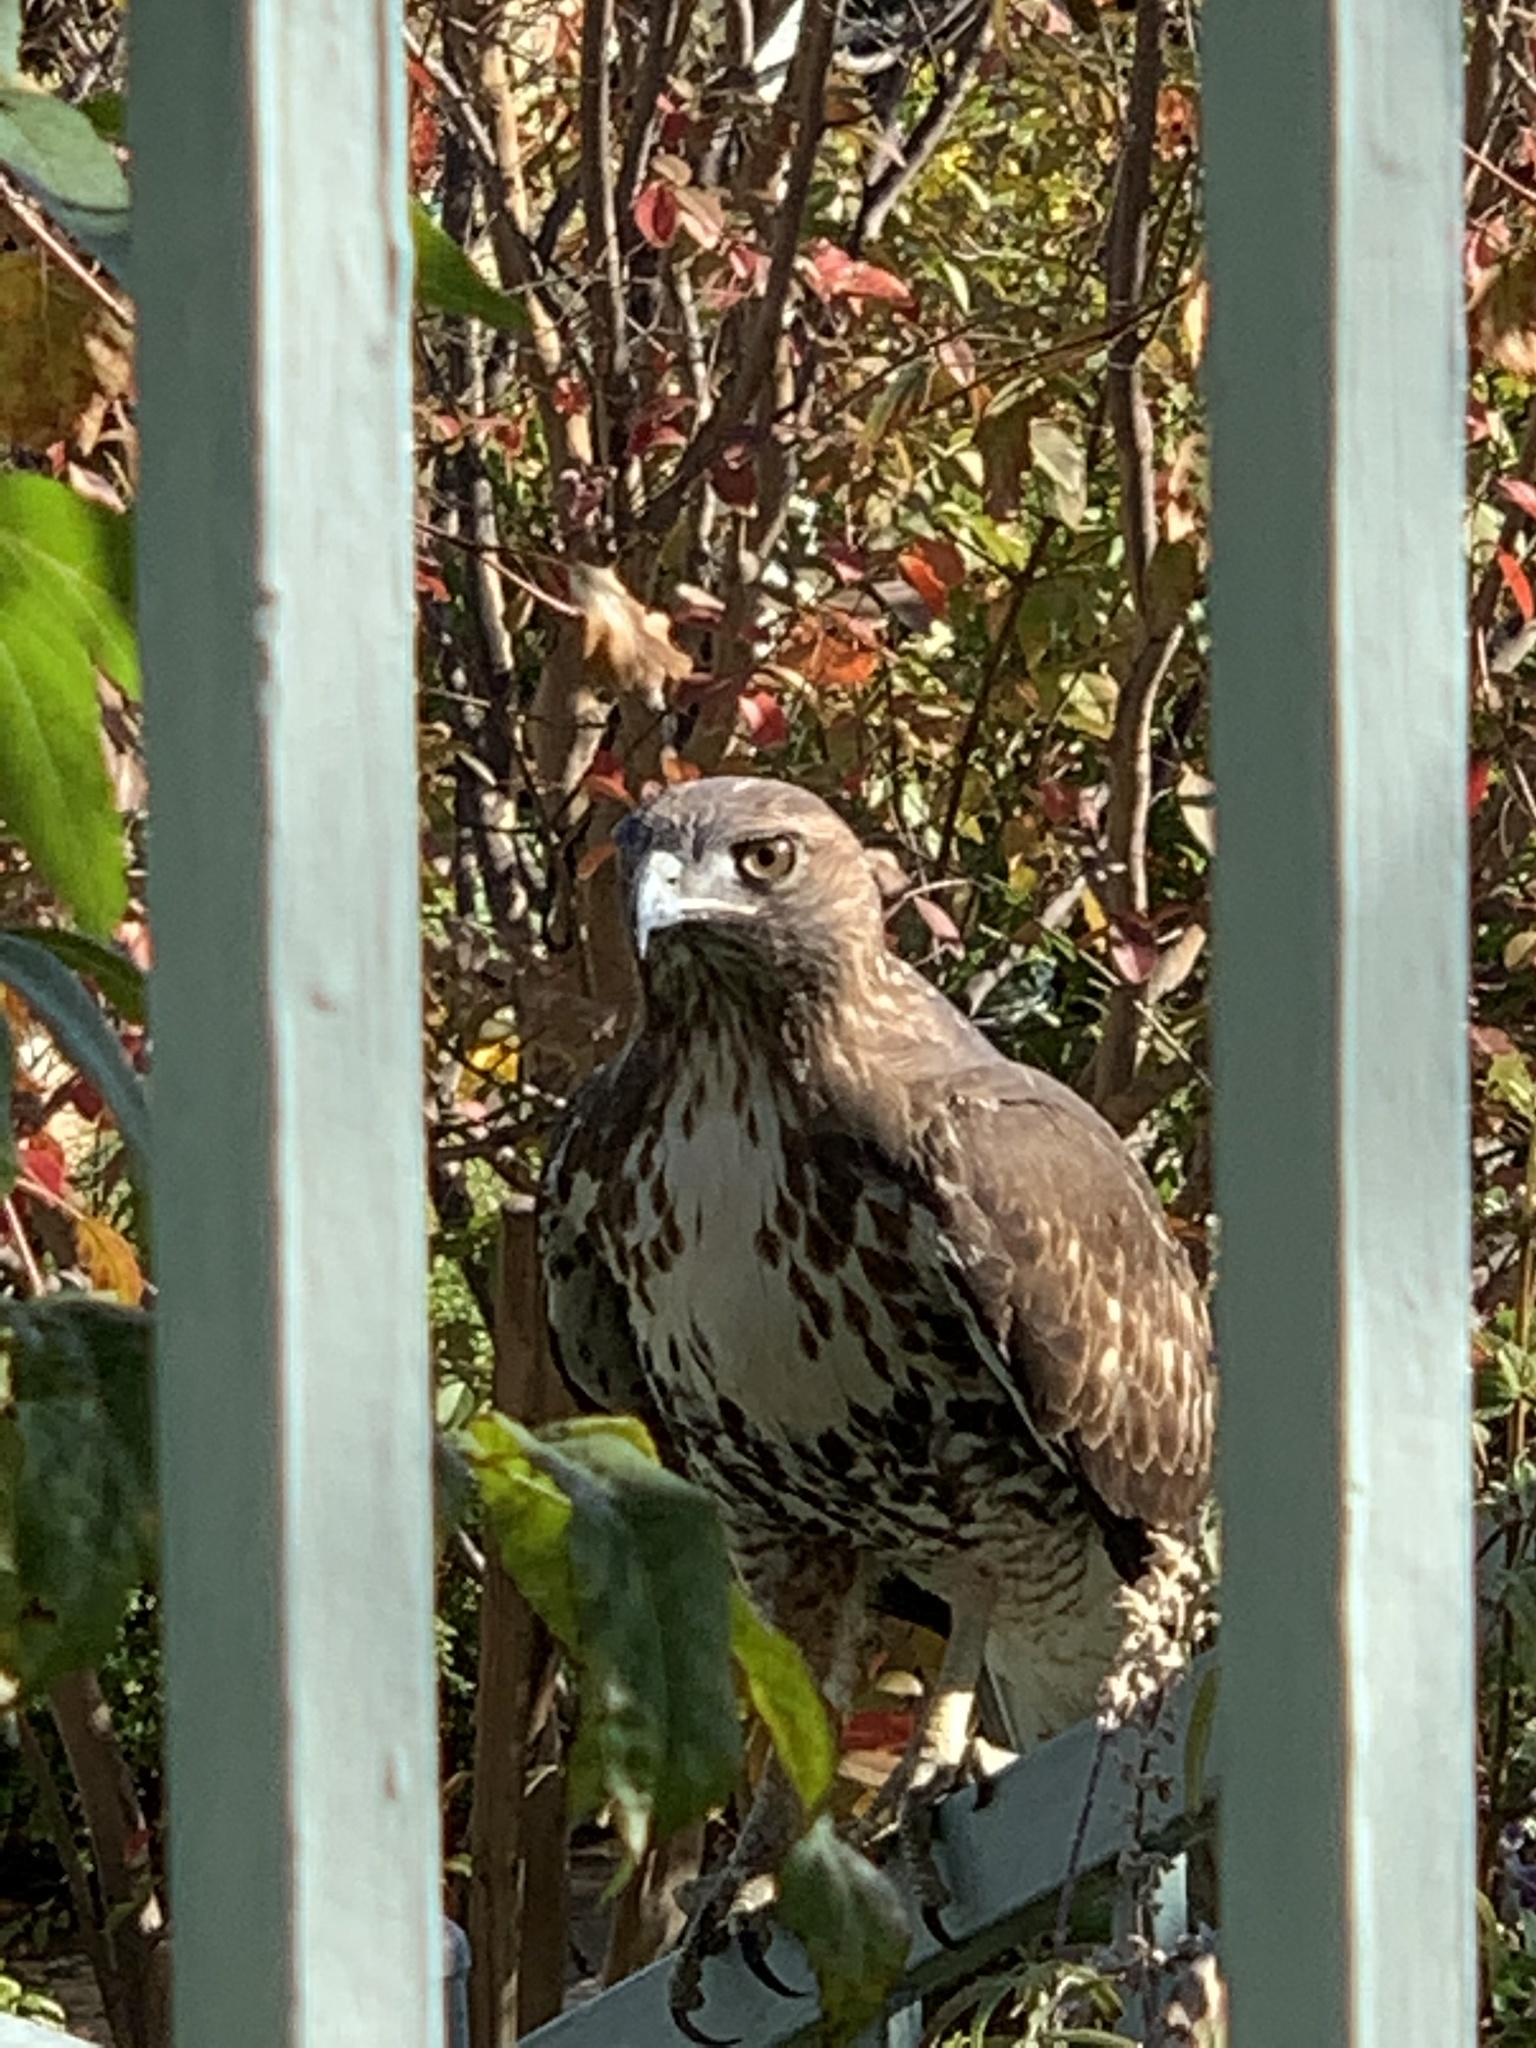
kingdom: Animalia
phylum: Chordata
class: Aves
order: Accipitriformes
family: Accipitridae
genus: Buteo
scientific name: Buteo jamaicensis
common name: Red-tailed hawk
